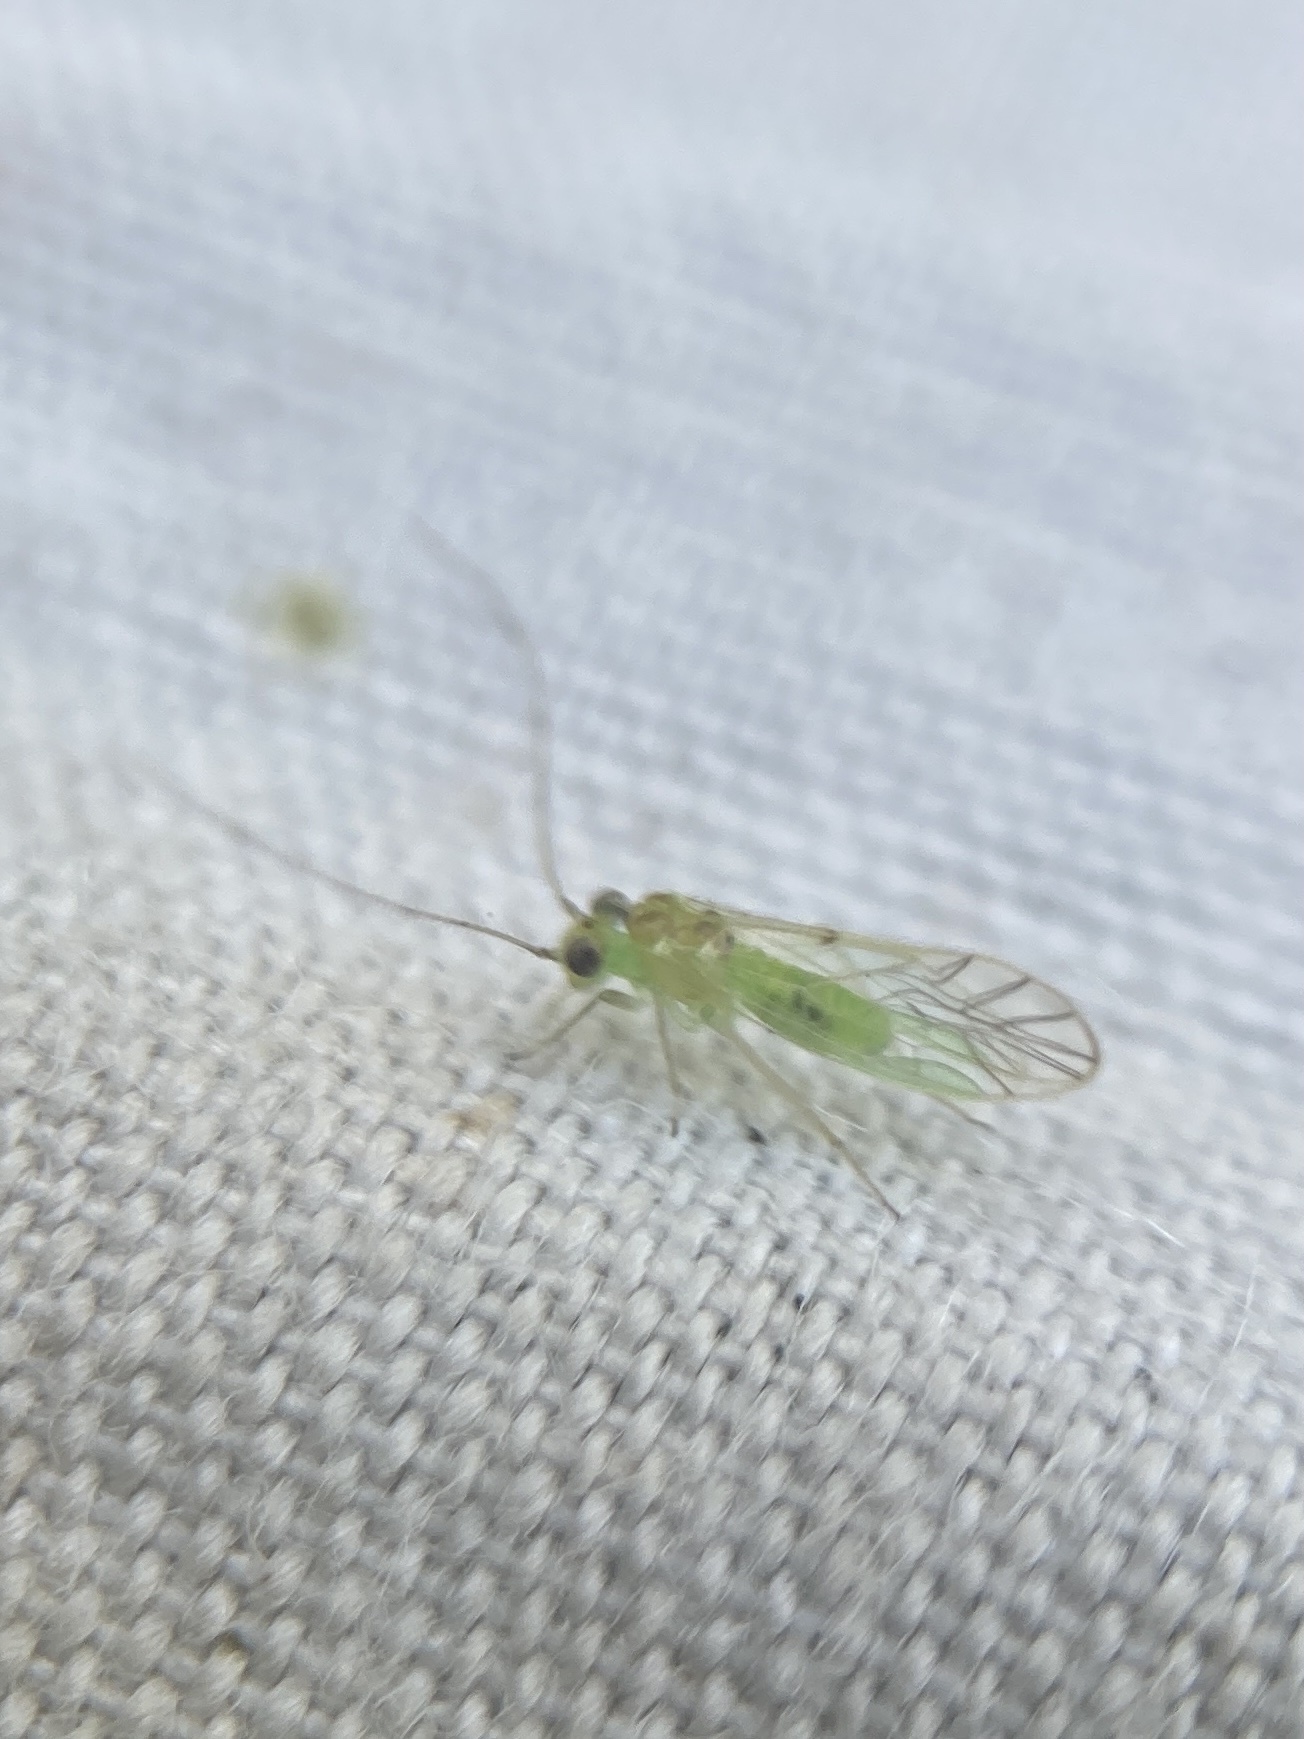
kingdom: Animalia
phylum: Arthropoda
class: Insecta
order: Psocodea
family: Pseudocaeciliidae
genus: Austropsocus
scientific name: Austropsocus viridis
